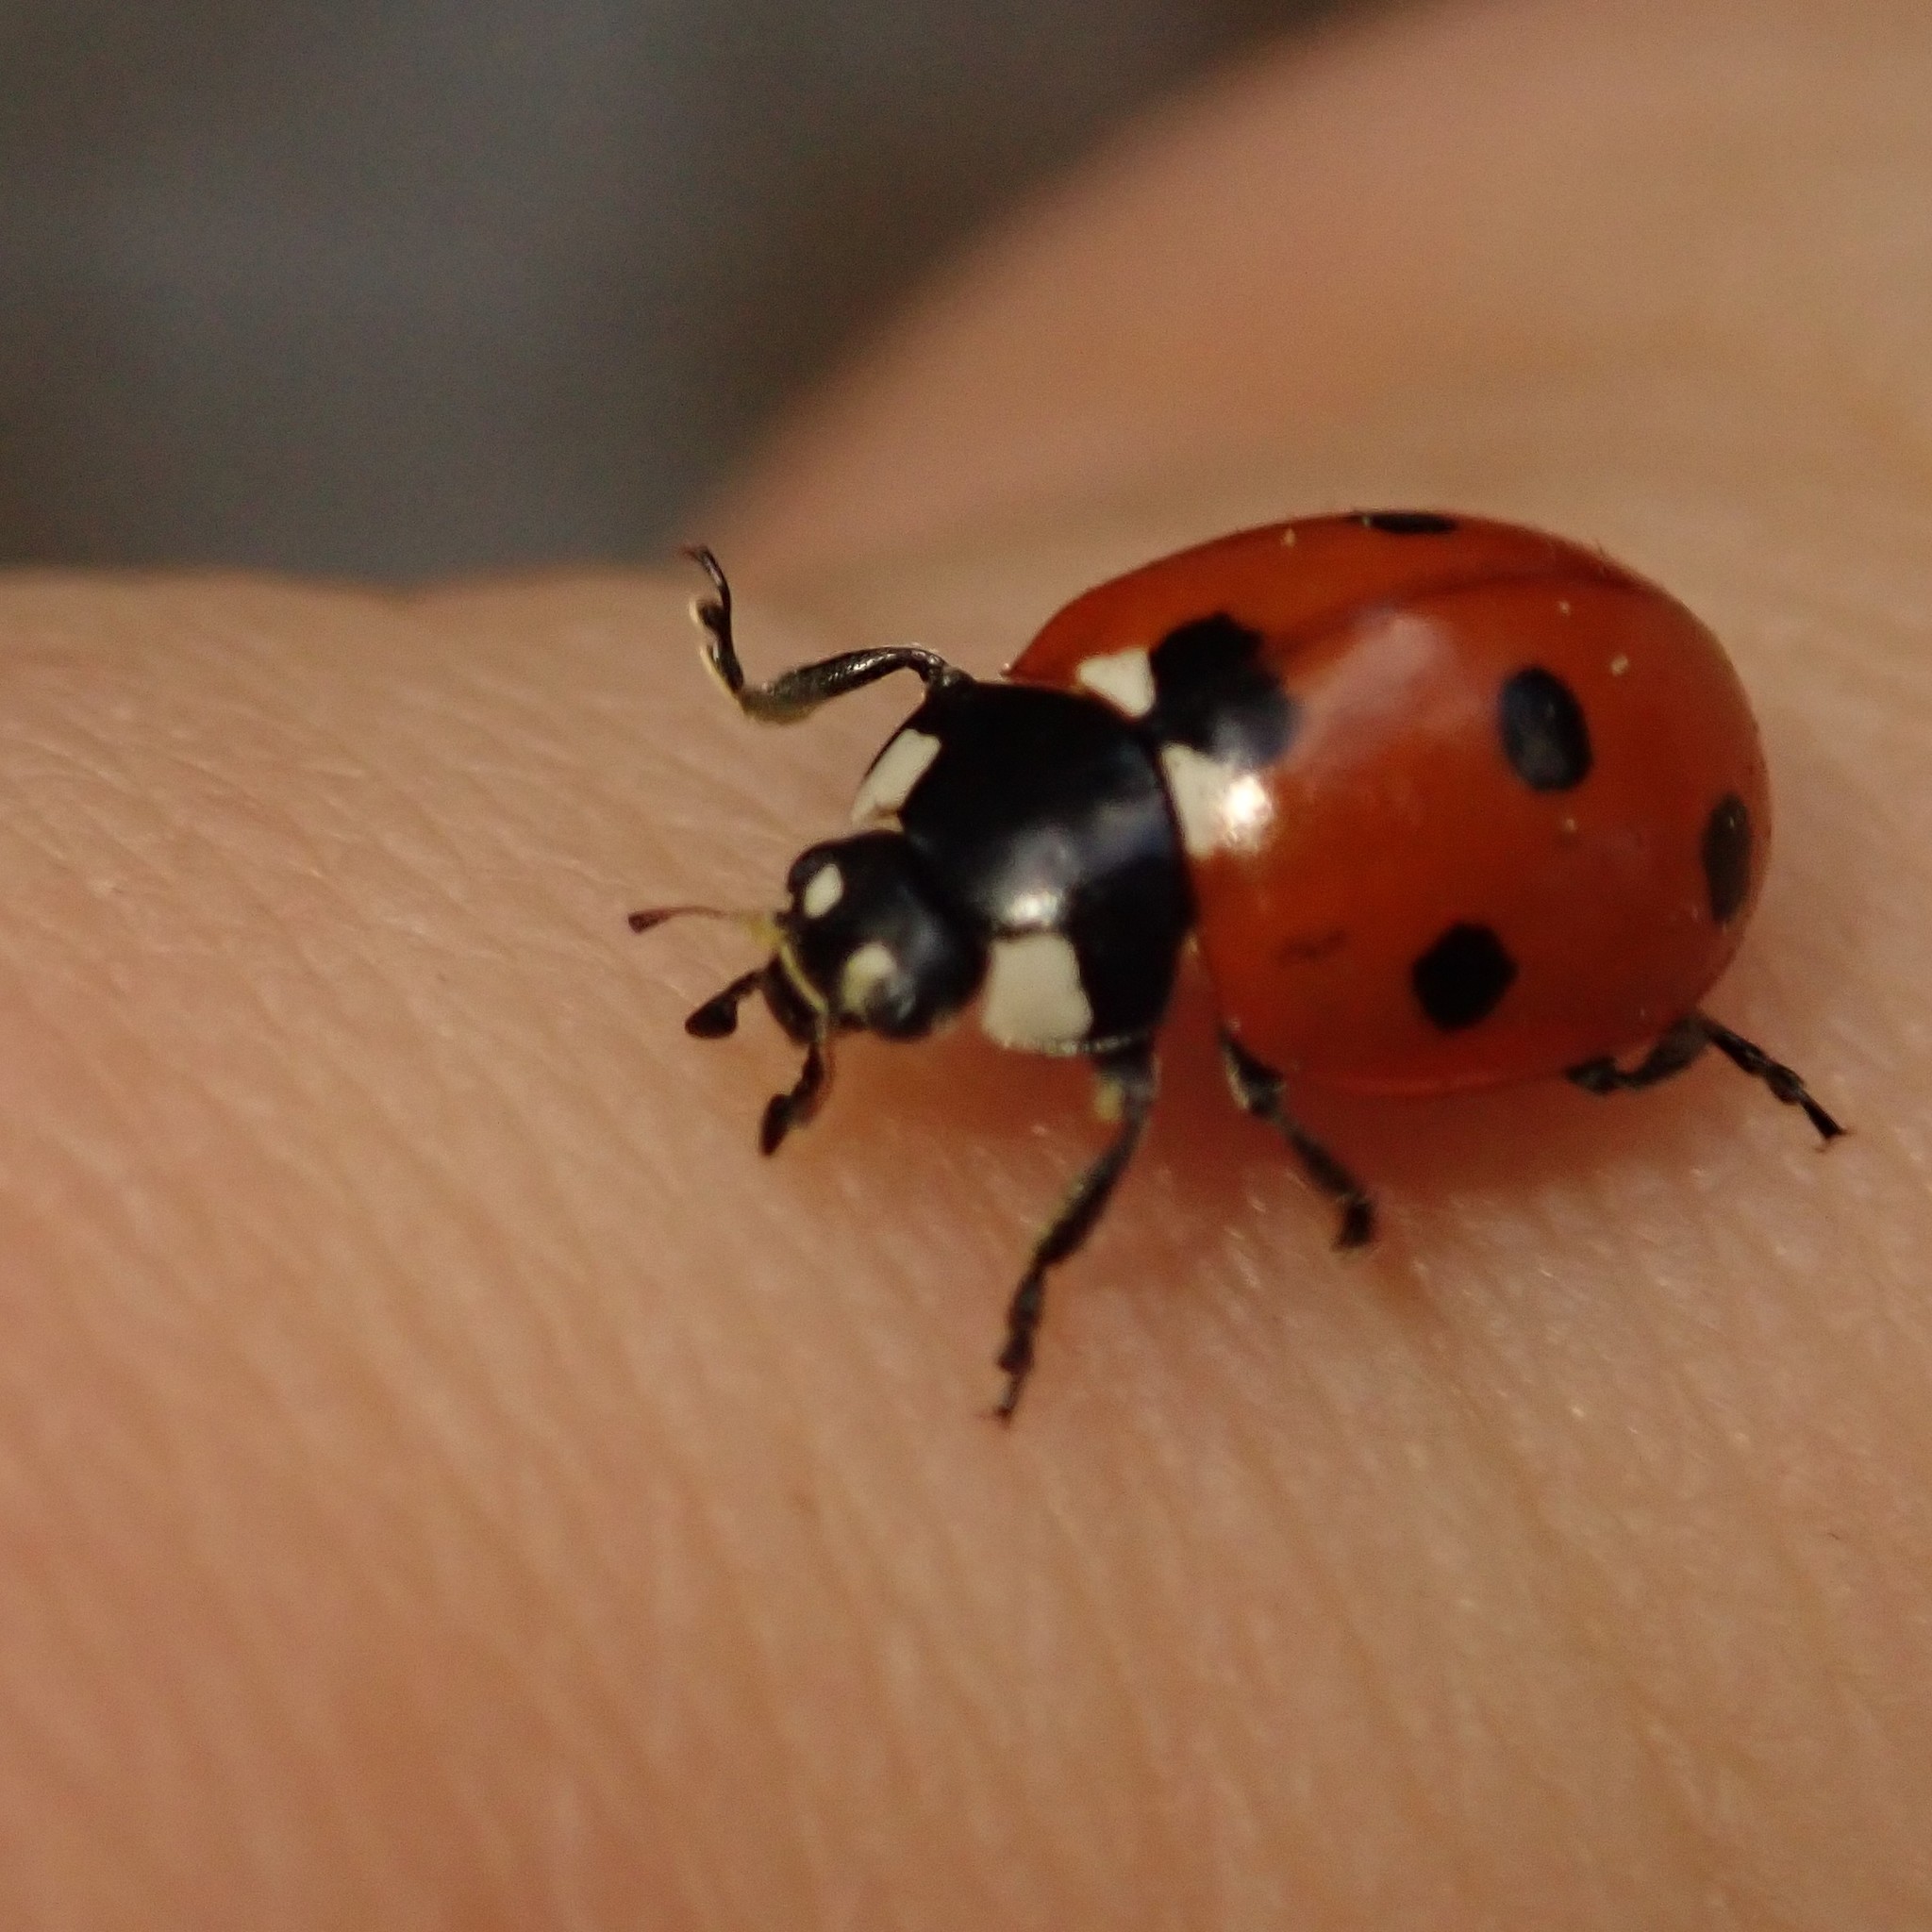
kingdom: Animalia
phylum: Arthropoda
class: Insecta
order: Coleoptera
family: Coccinellidae
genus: Coccinella
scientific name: Coccinella septempunctata
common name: Sevenspotted lady beetle
